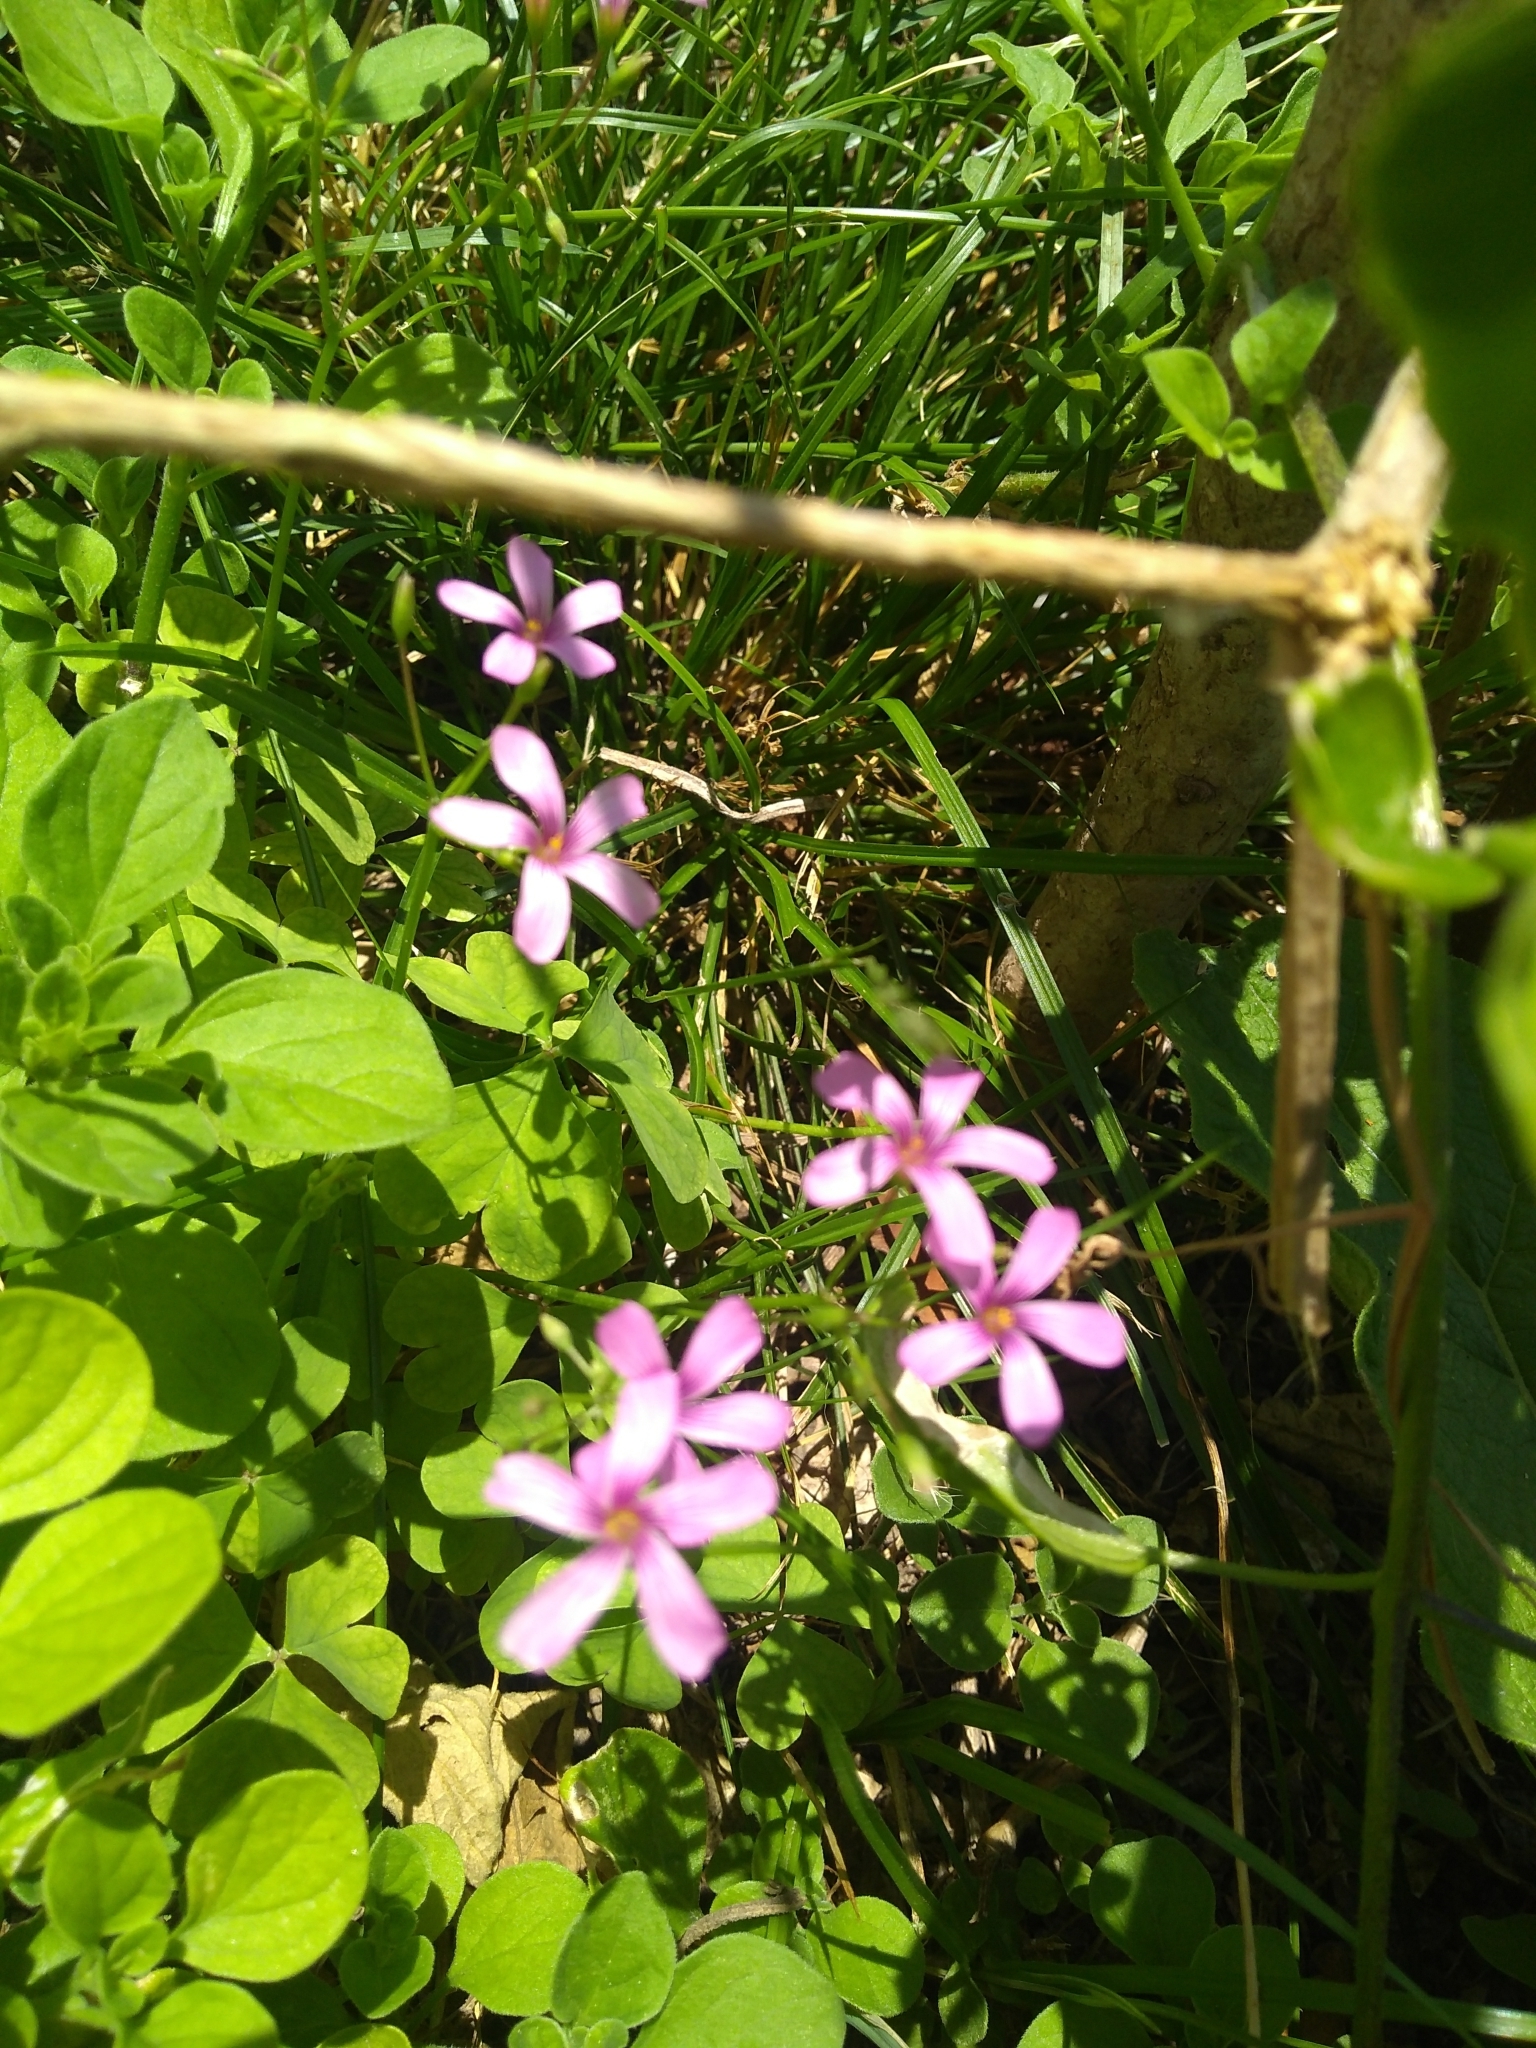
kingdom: Plantae
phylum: Tracheophyta
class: Magnoliopsida
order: Oxalidales
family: Oxalidaceae
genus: Oxalis
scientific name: Oxalis articulata
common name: Pink-sorrel
